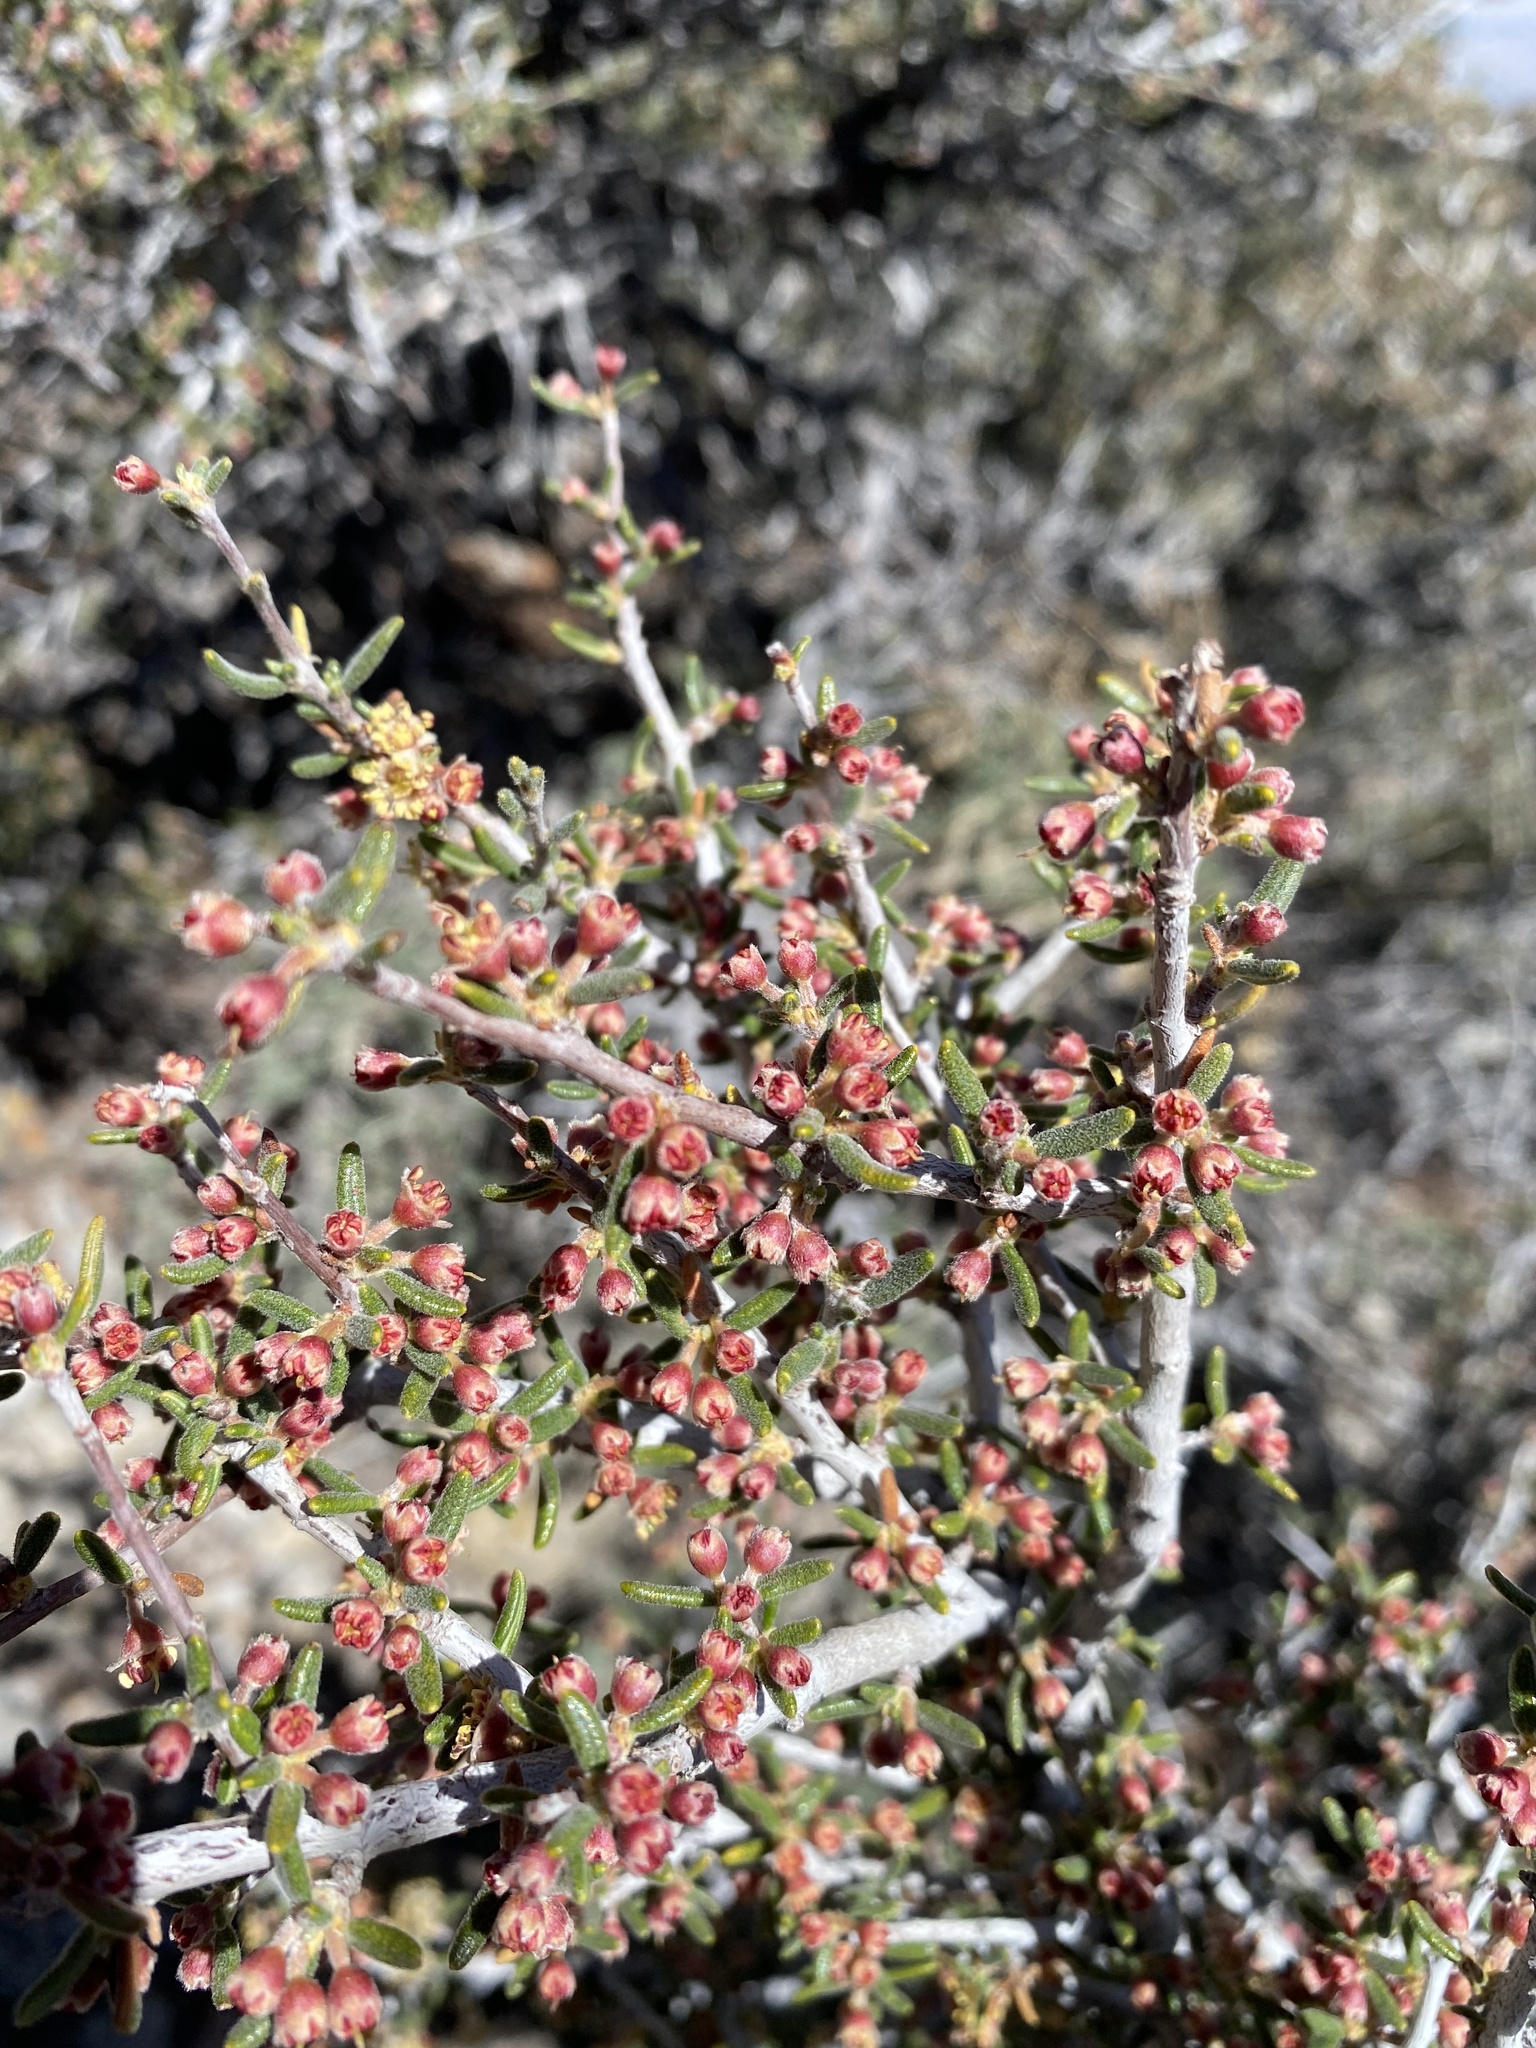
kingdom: Plantae
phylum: Tracheophyta
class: Magnoliopsida
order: Rosales
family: Rosaceae
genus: Cercocarpus
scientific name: Cercocarpus intricatus
